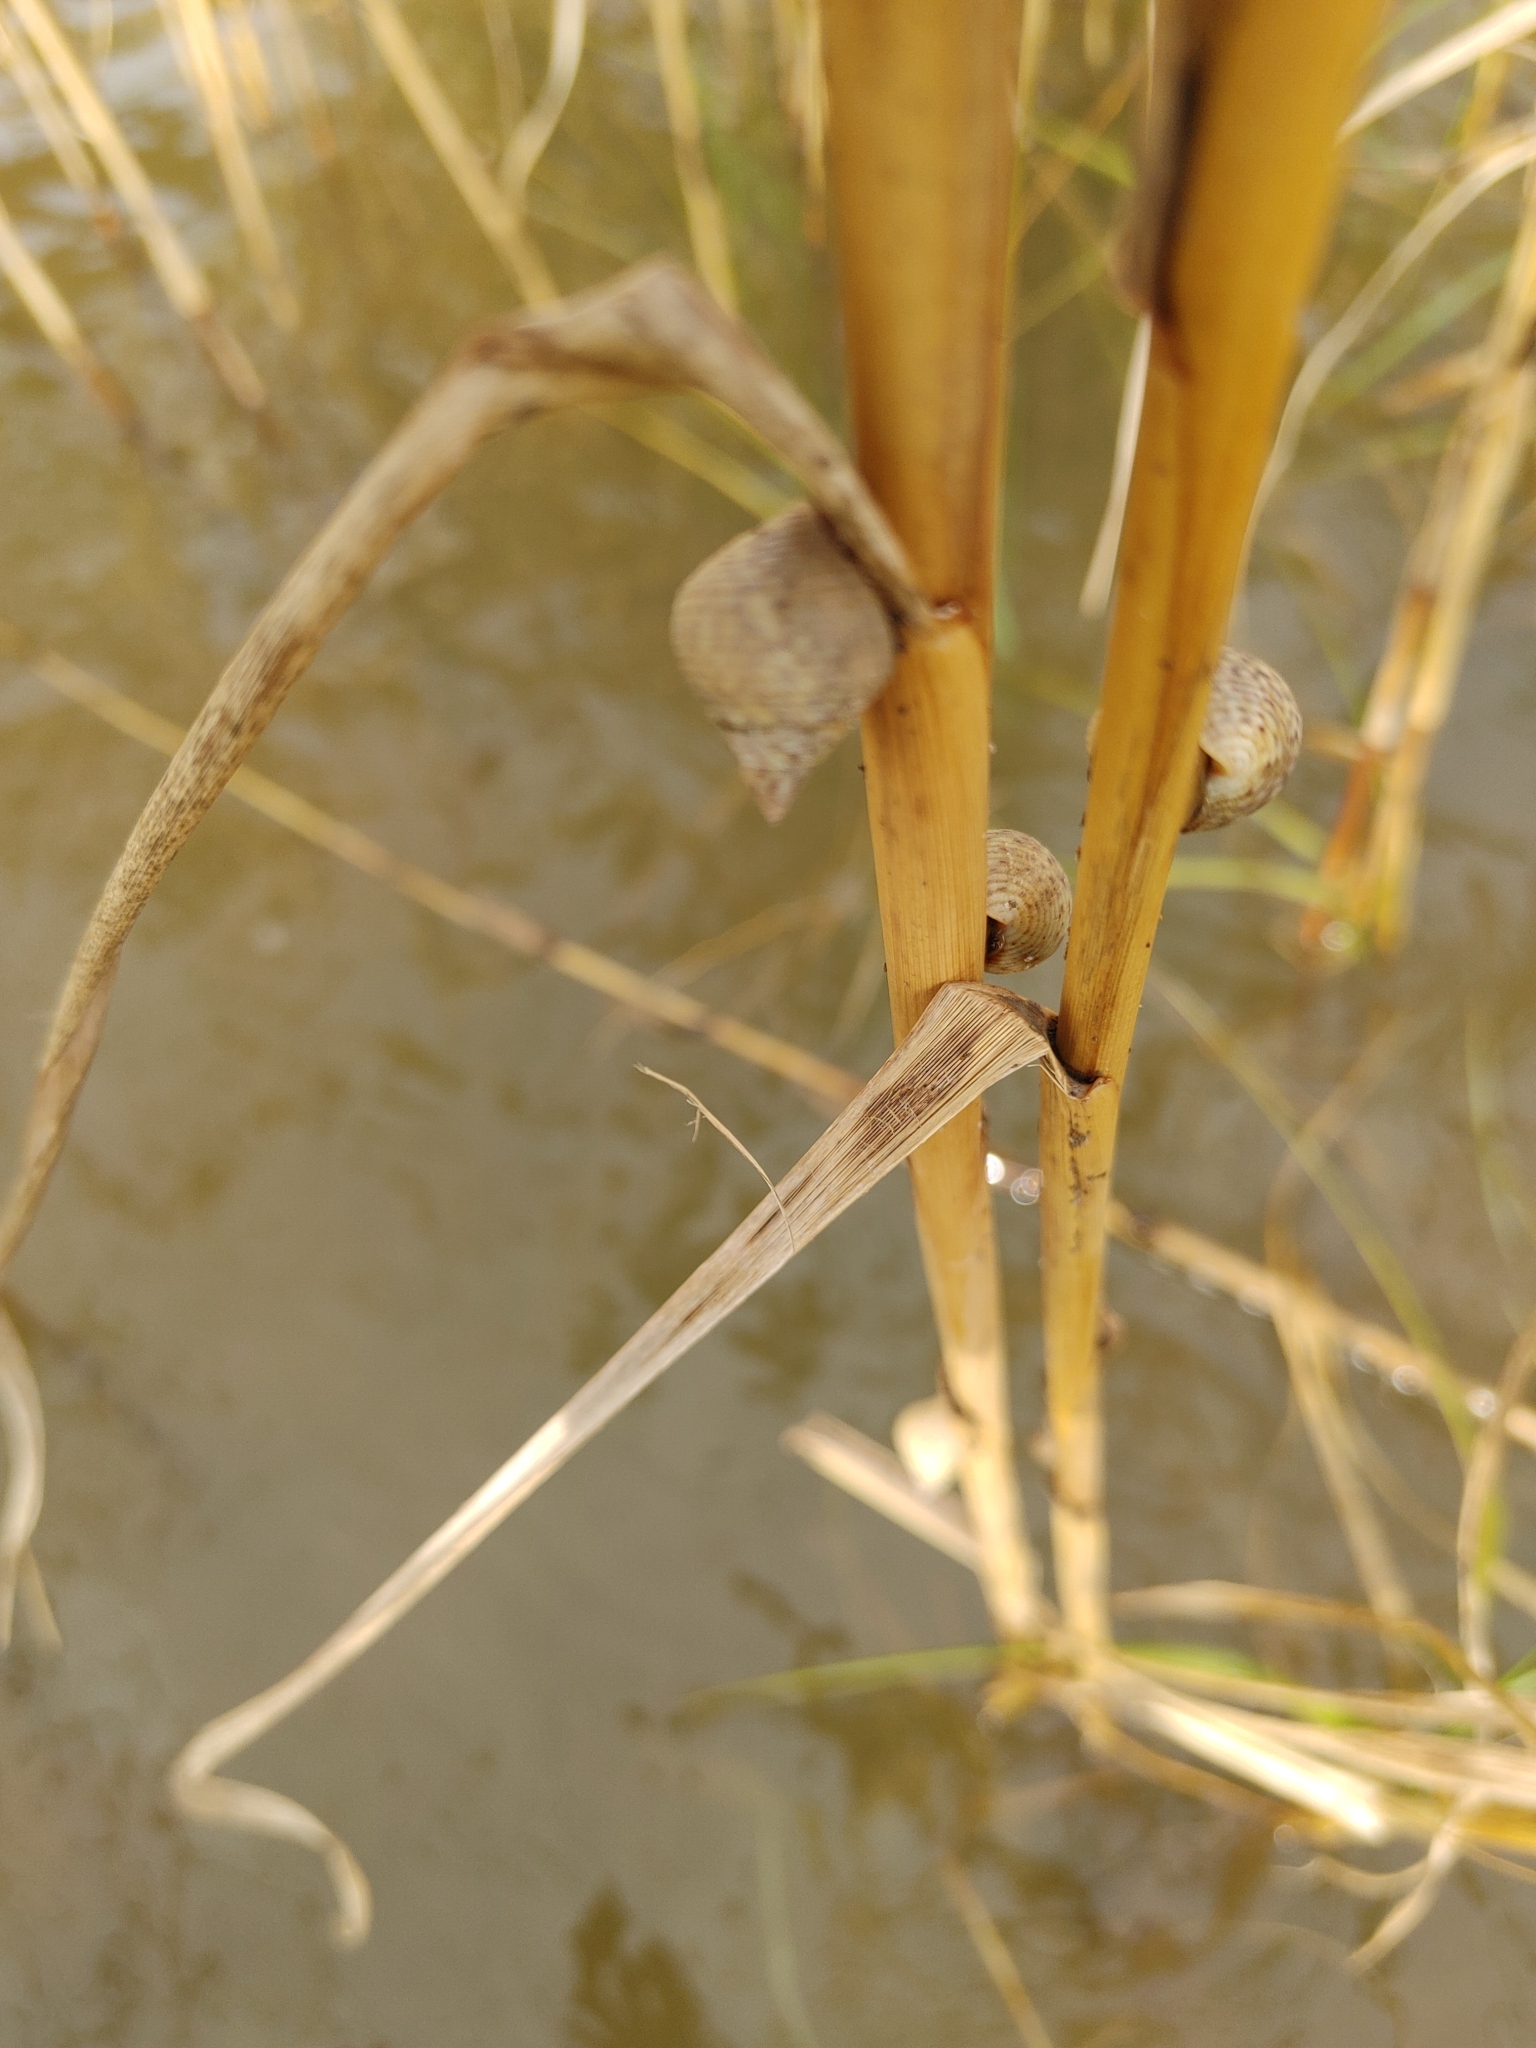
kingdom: Animalia
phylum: Mollusca
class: Gastropoda
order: Littorinimorpha
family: Littorinidae
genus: Littoraria
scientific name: Littoraria irrorata
